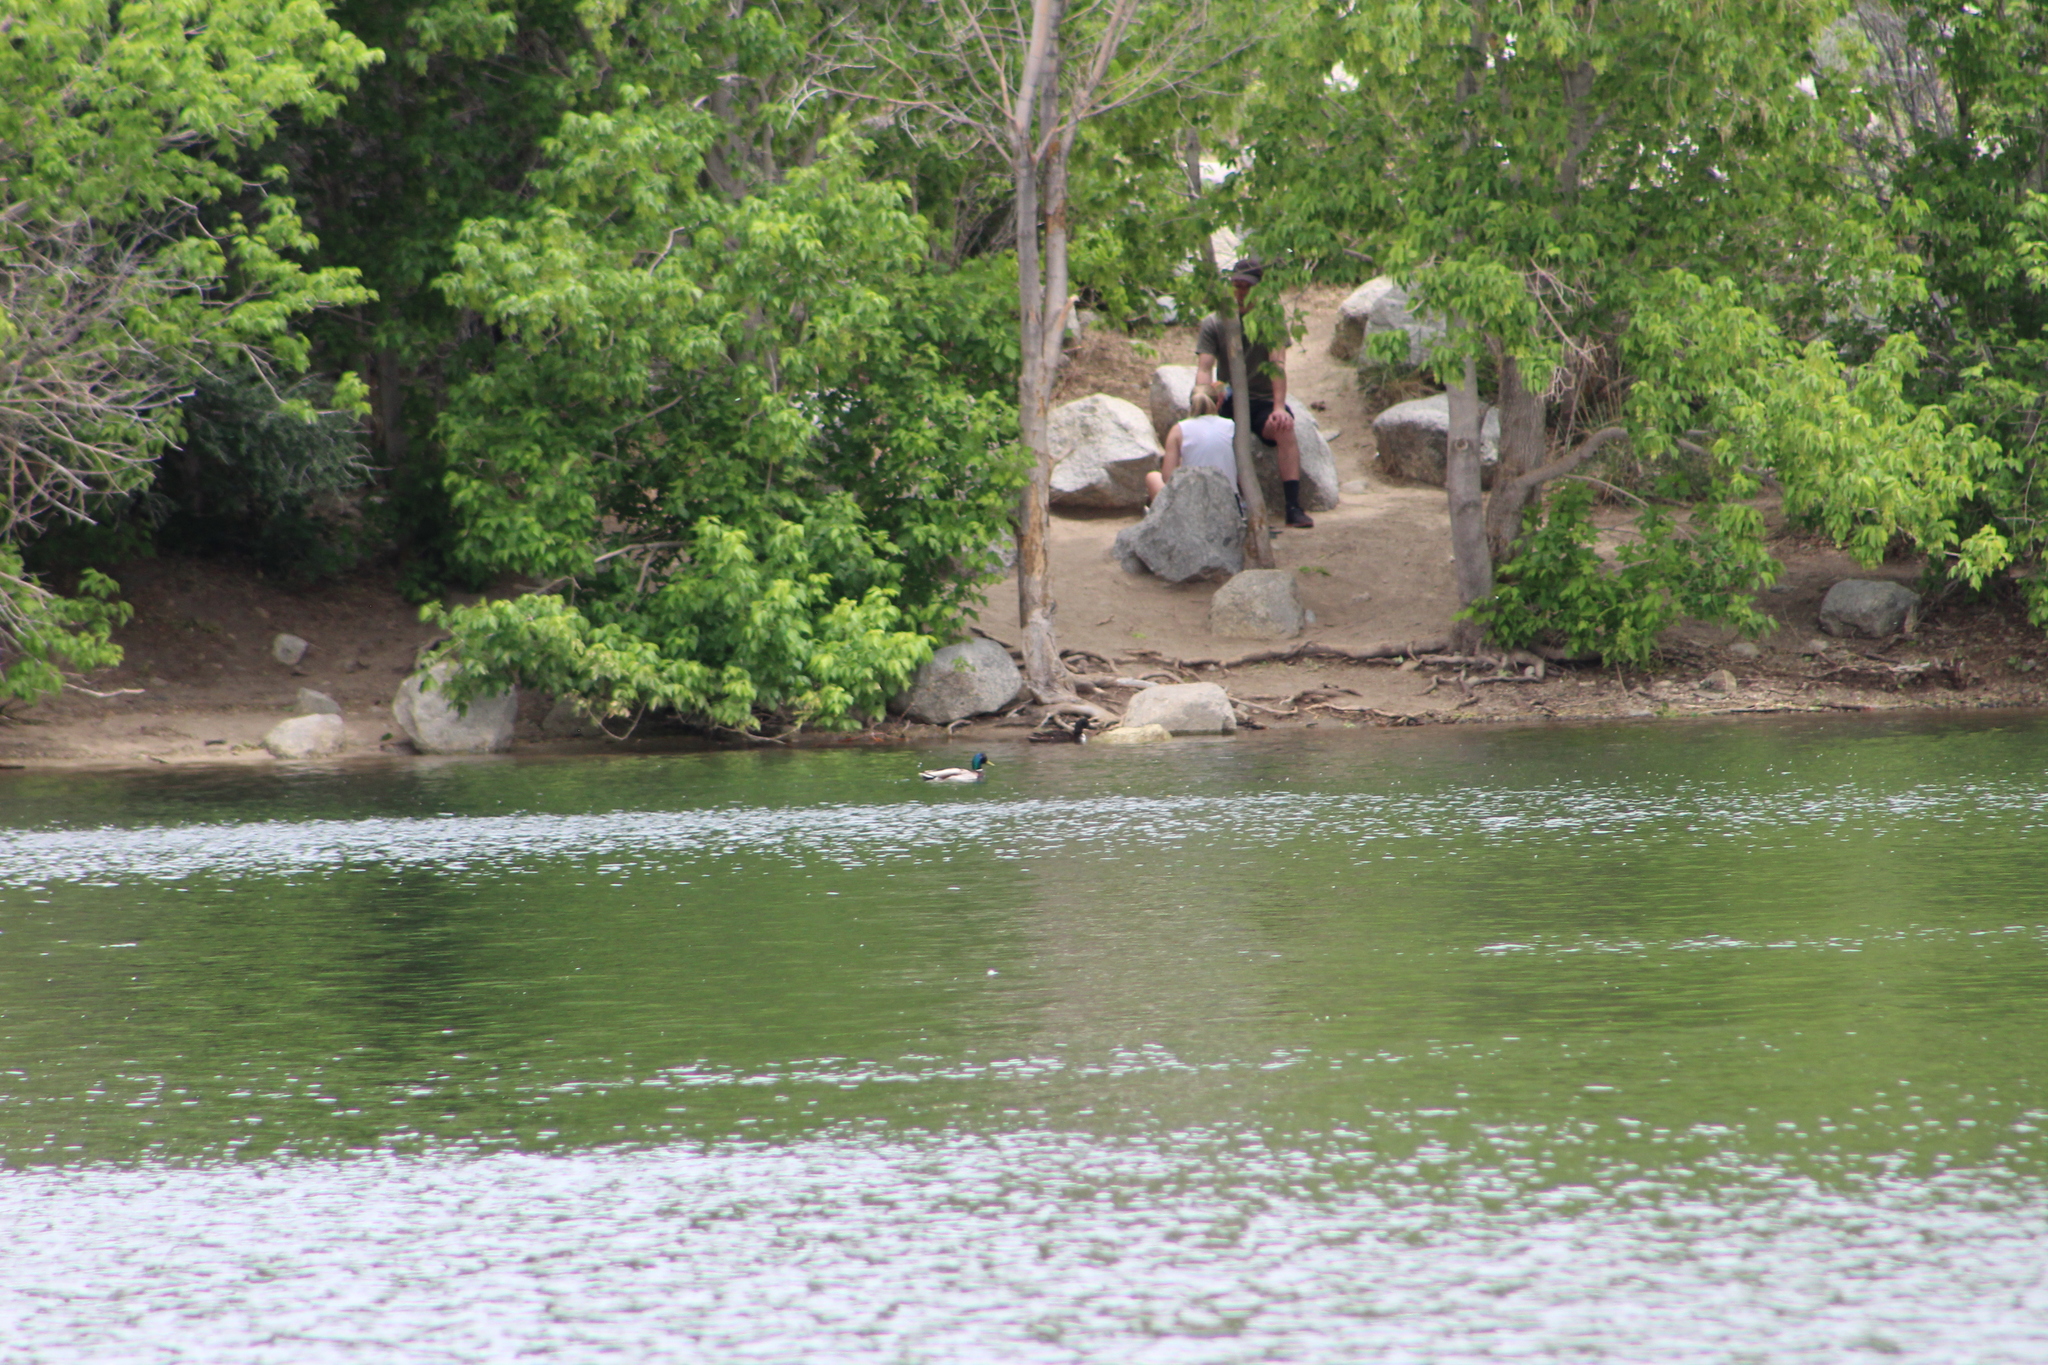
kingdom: Animalia
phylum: Chordata
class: Aves
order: Anseriformes
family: Anatidae
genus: Anas
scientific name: Anas platyrhynchos
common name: Mallard
